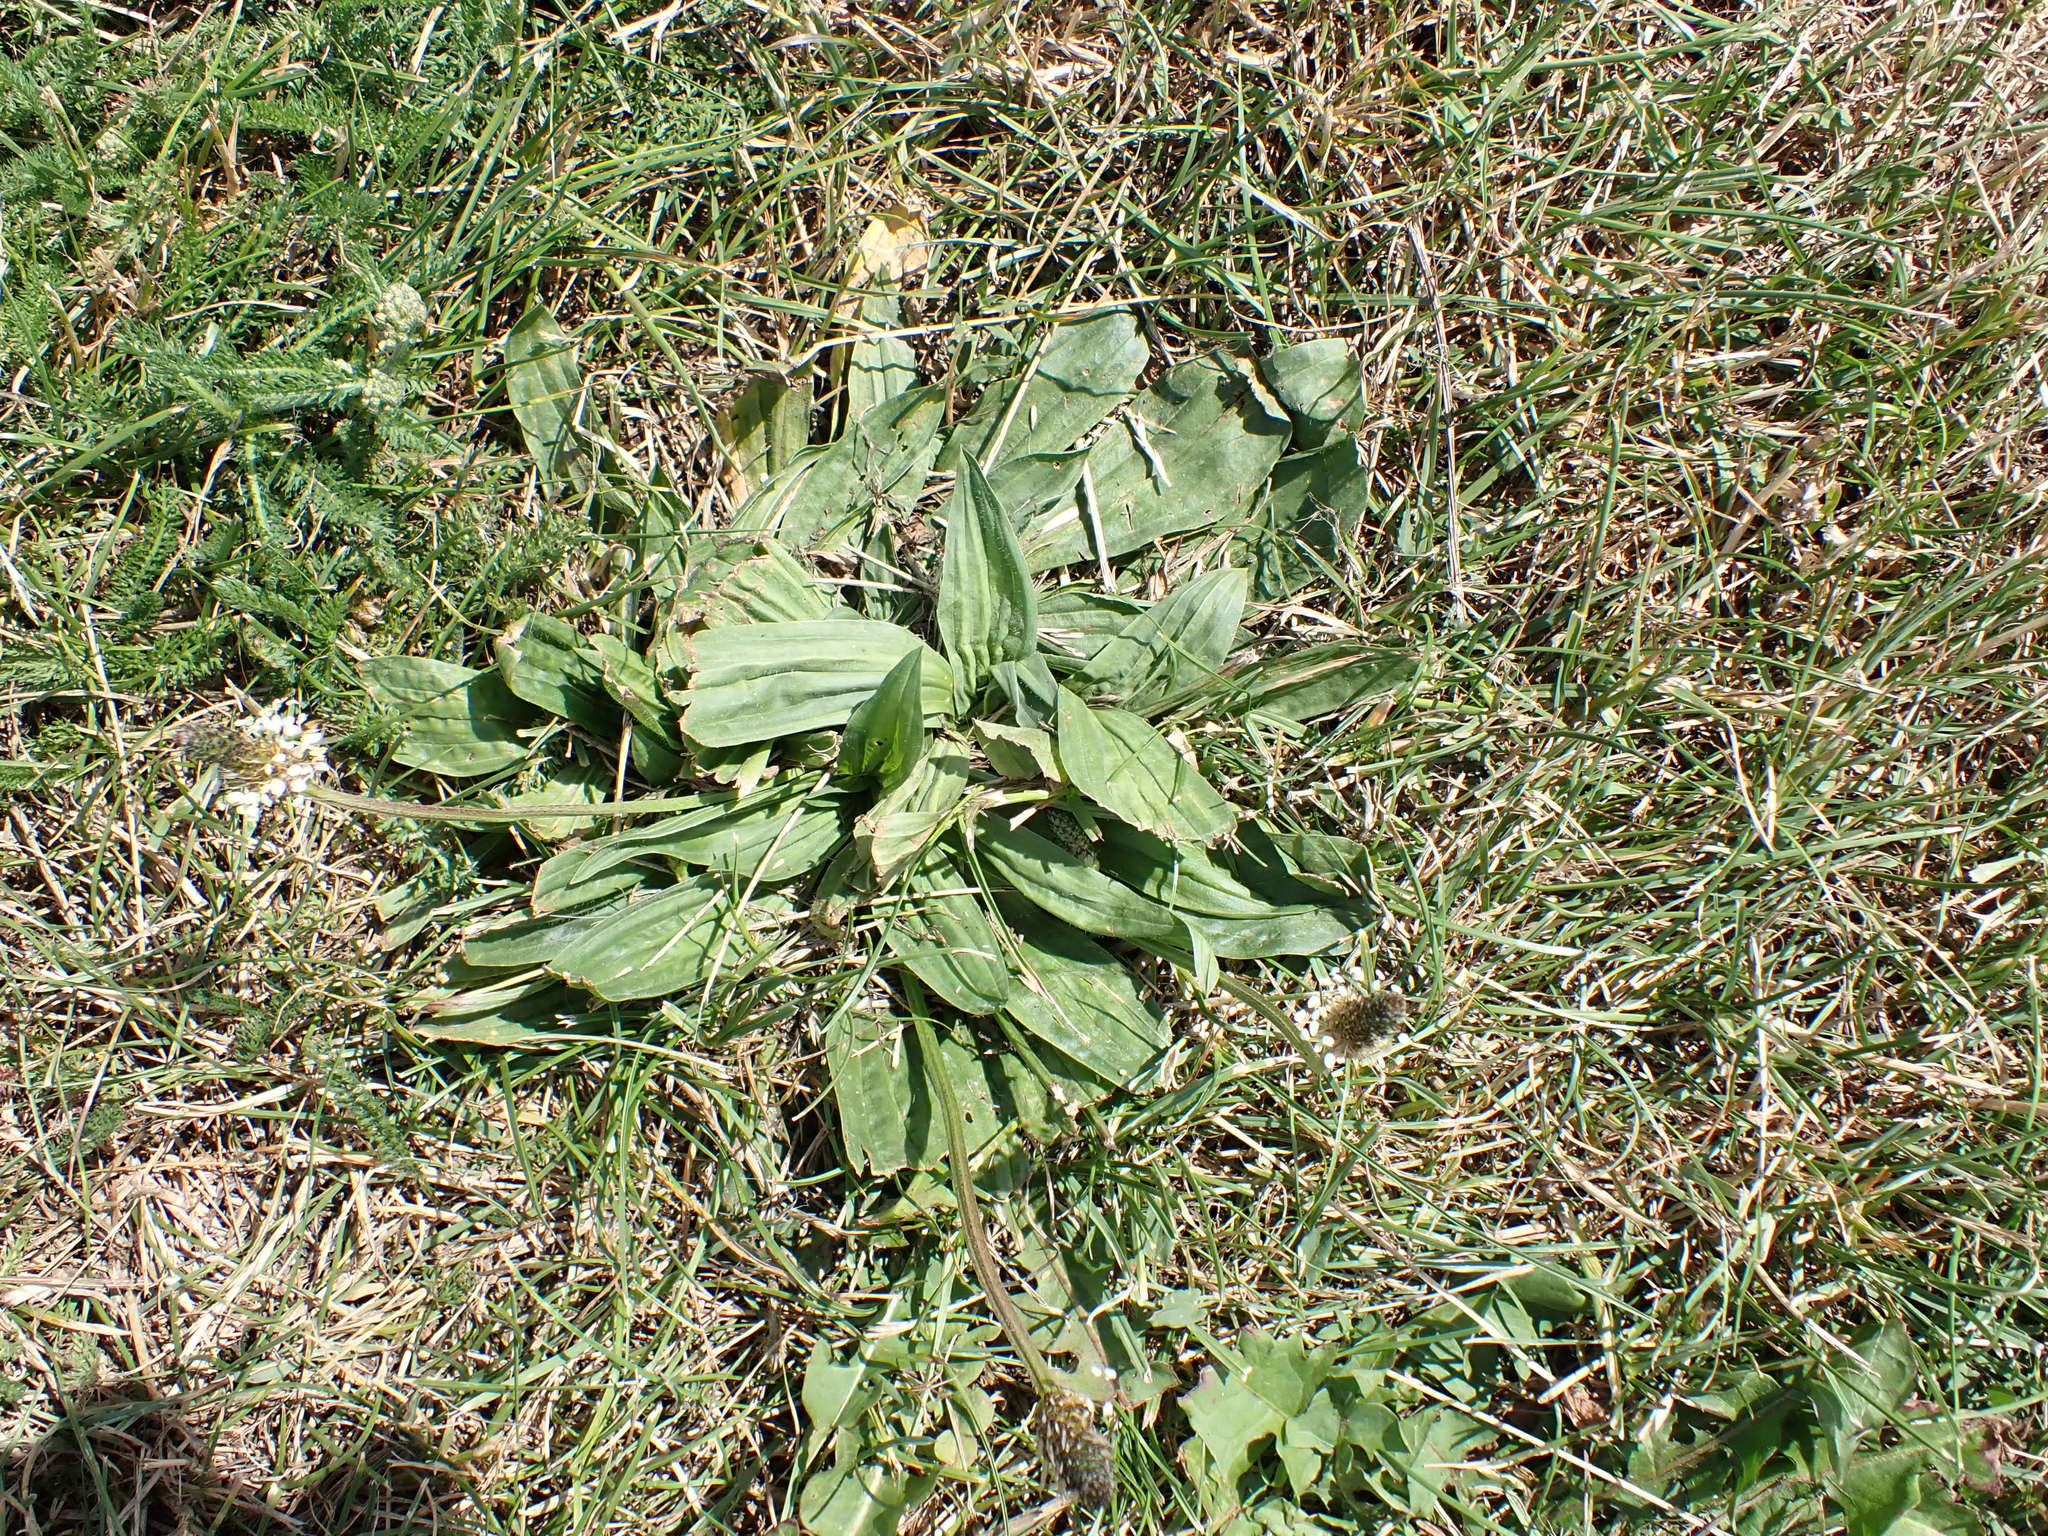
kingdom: Plantae
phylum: Tracheophyta
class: Magnoliopsida
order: Lamiales
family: Plantaginaceae
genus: Plantago
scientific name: Plantago lanceolata
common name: Ribwort plantain
